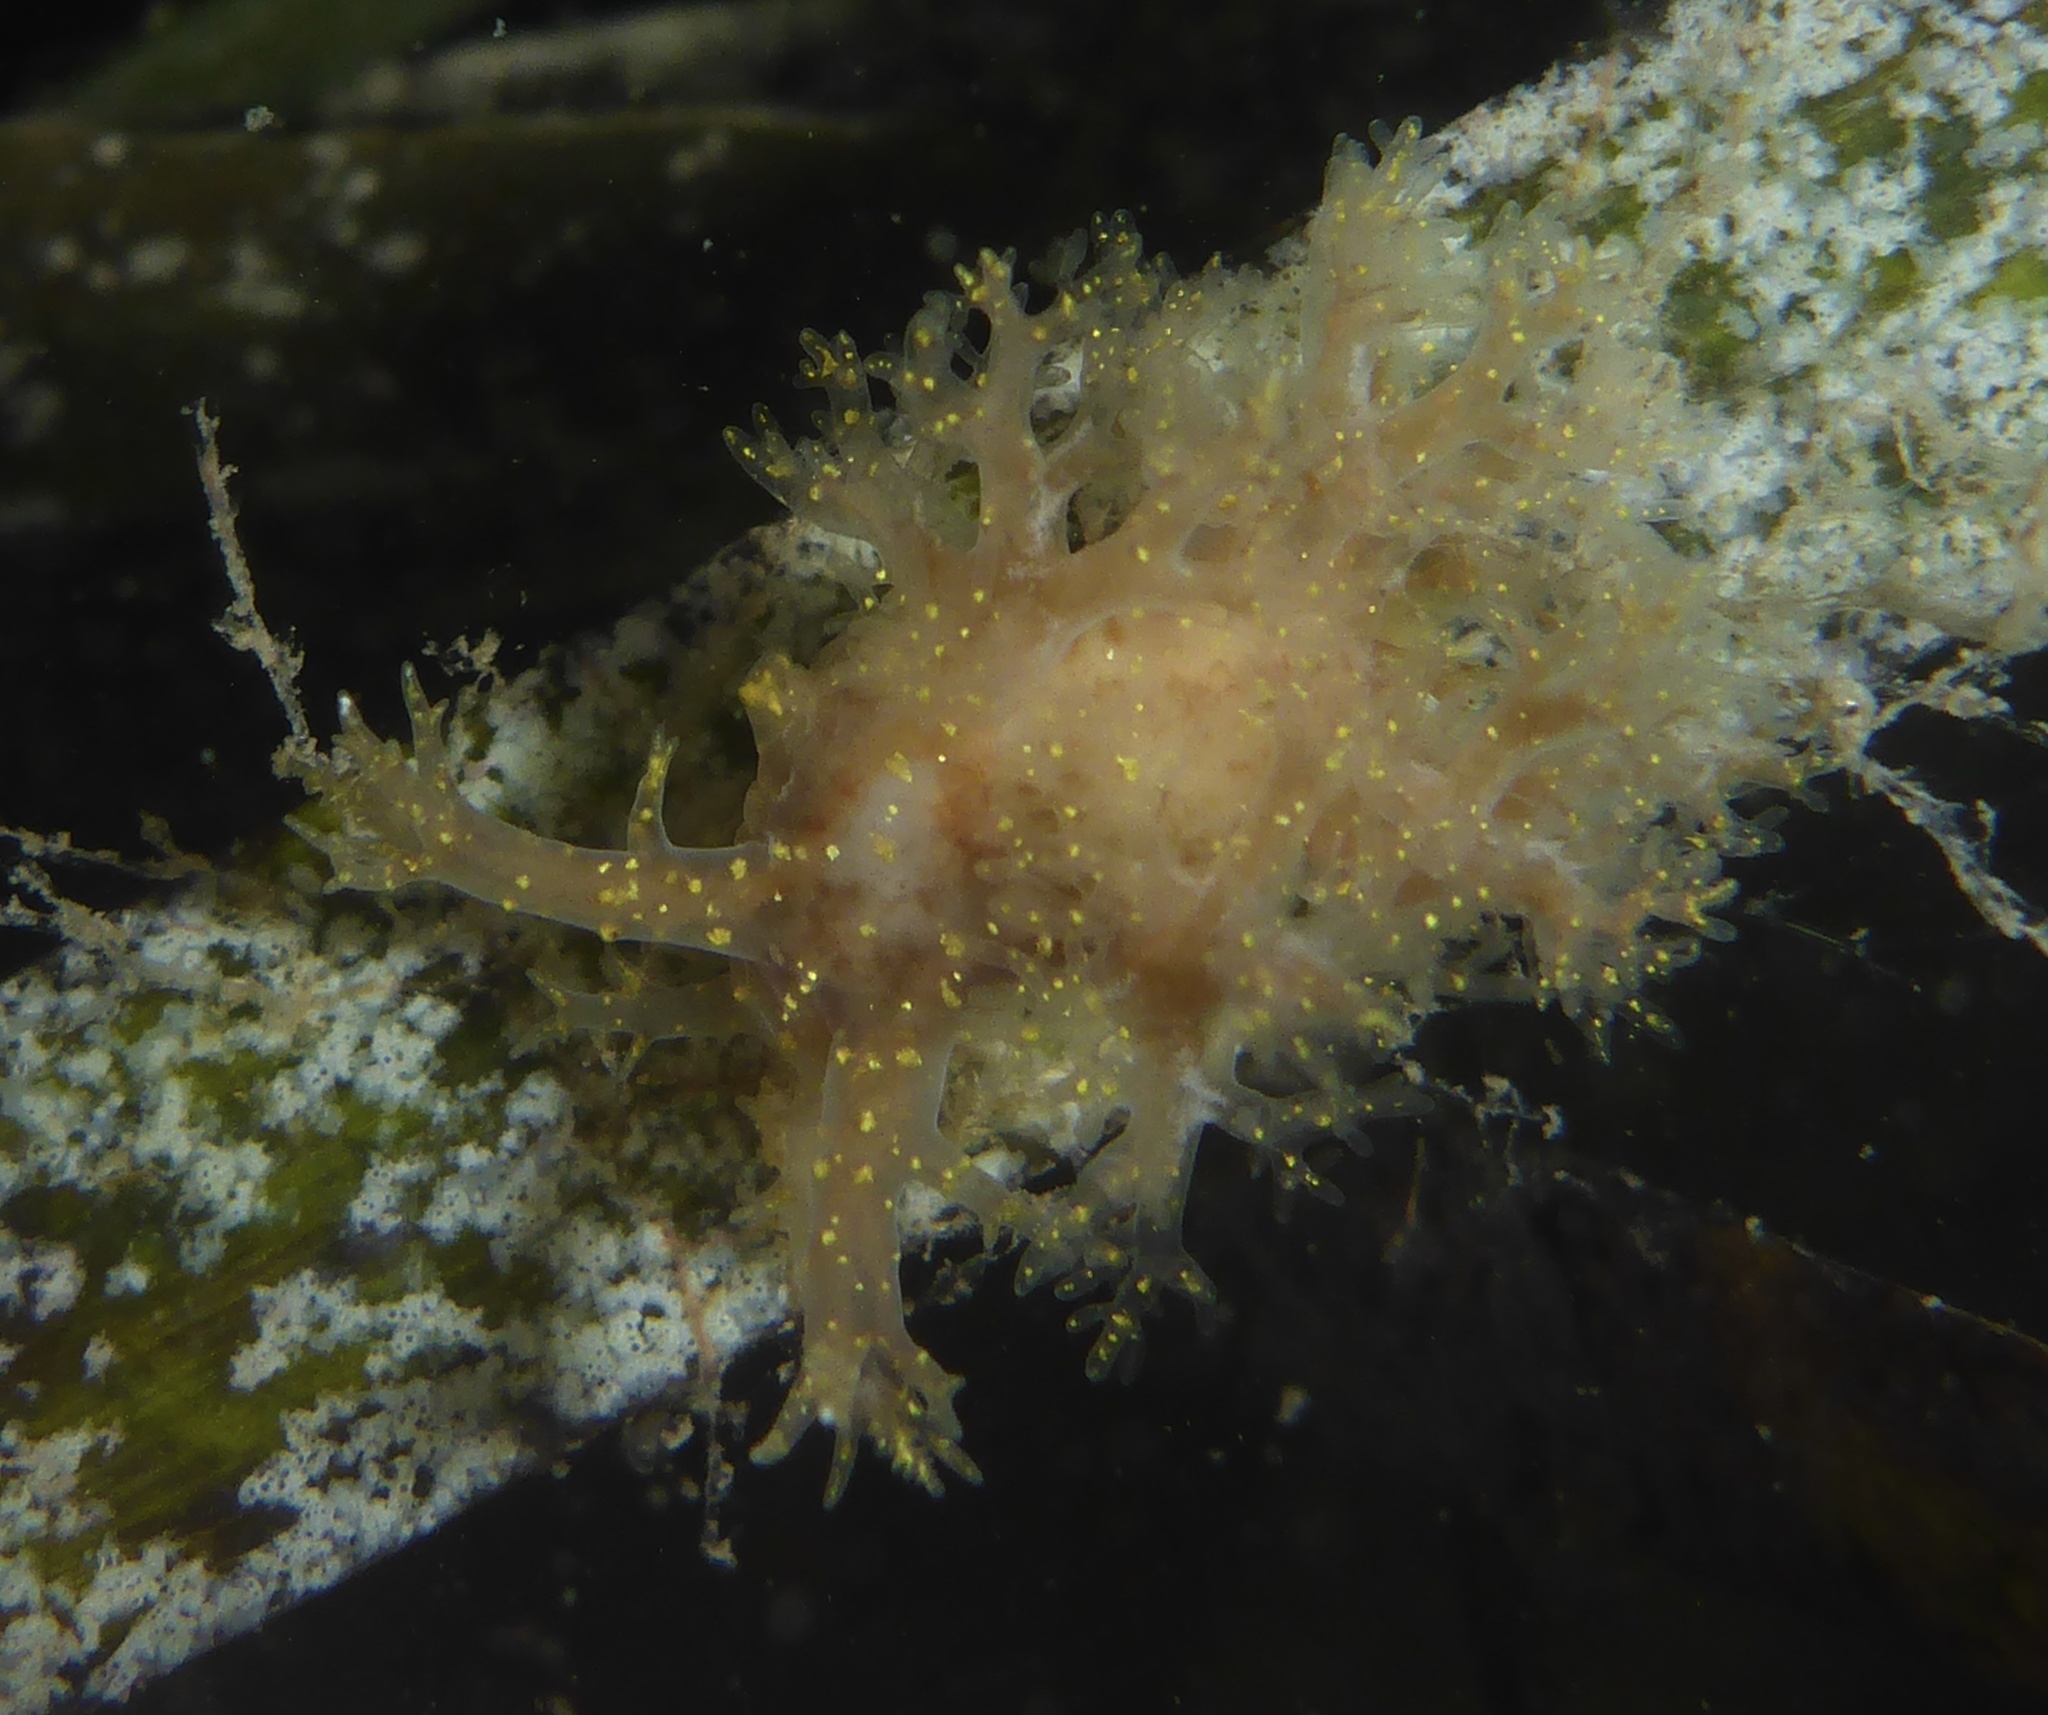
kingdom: Animalia
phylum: Mollusca
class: Gastropoda
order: Nudibranchia
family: Dendronotidae
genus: Dendronotus
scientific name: Dendronotus venustus
